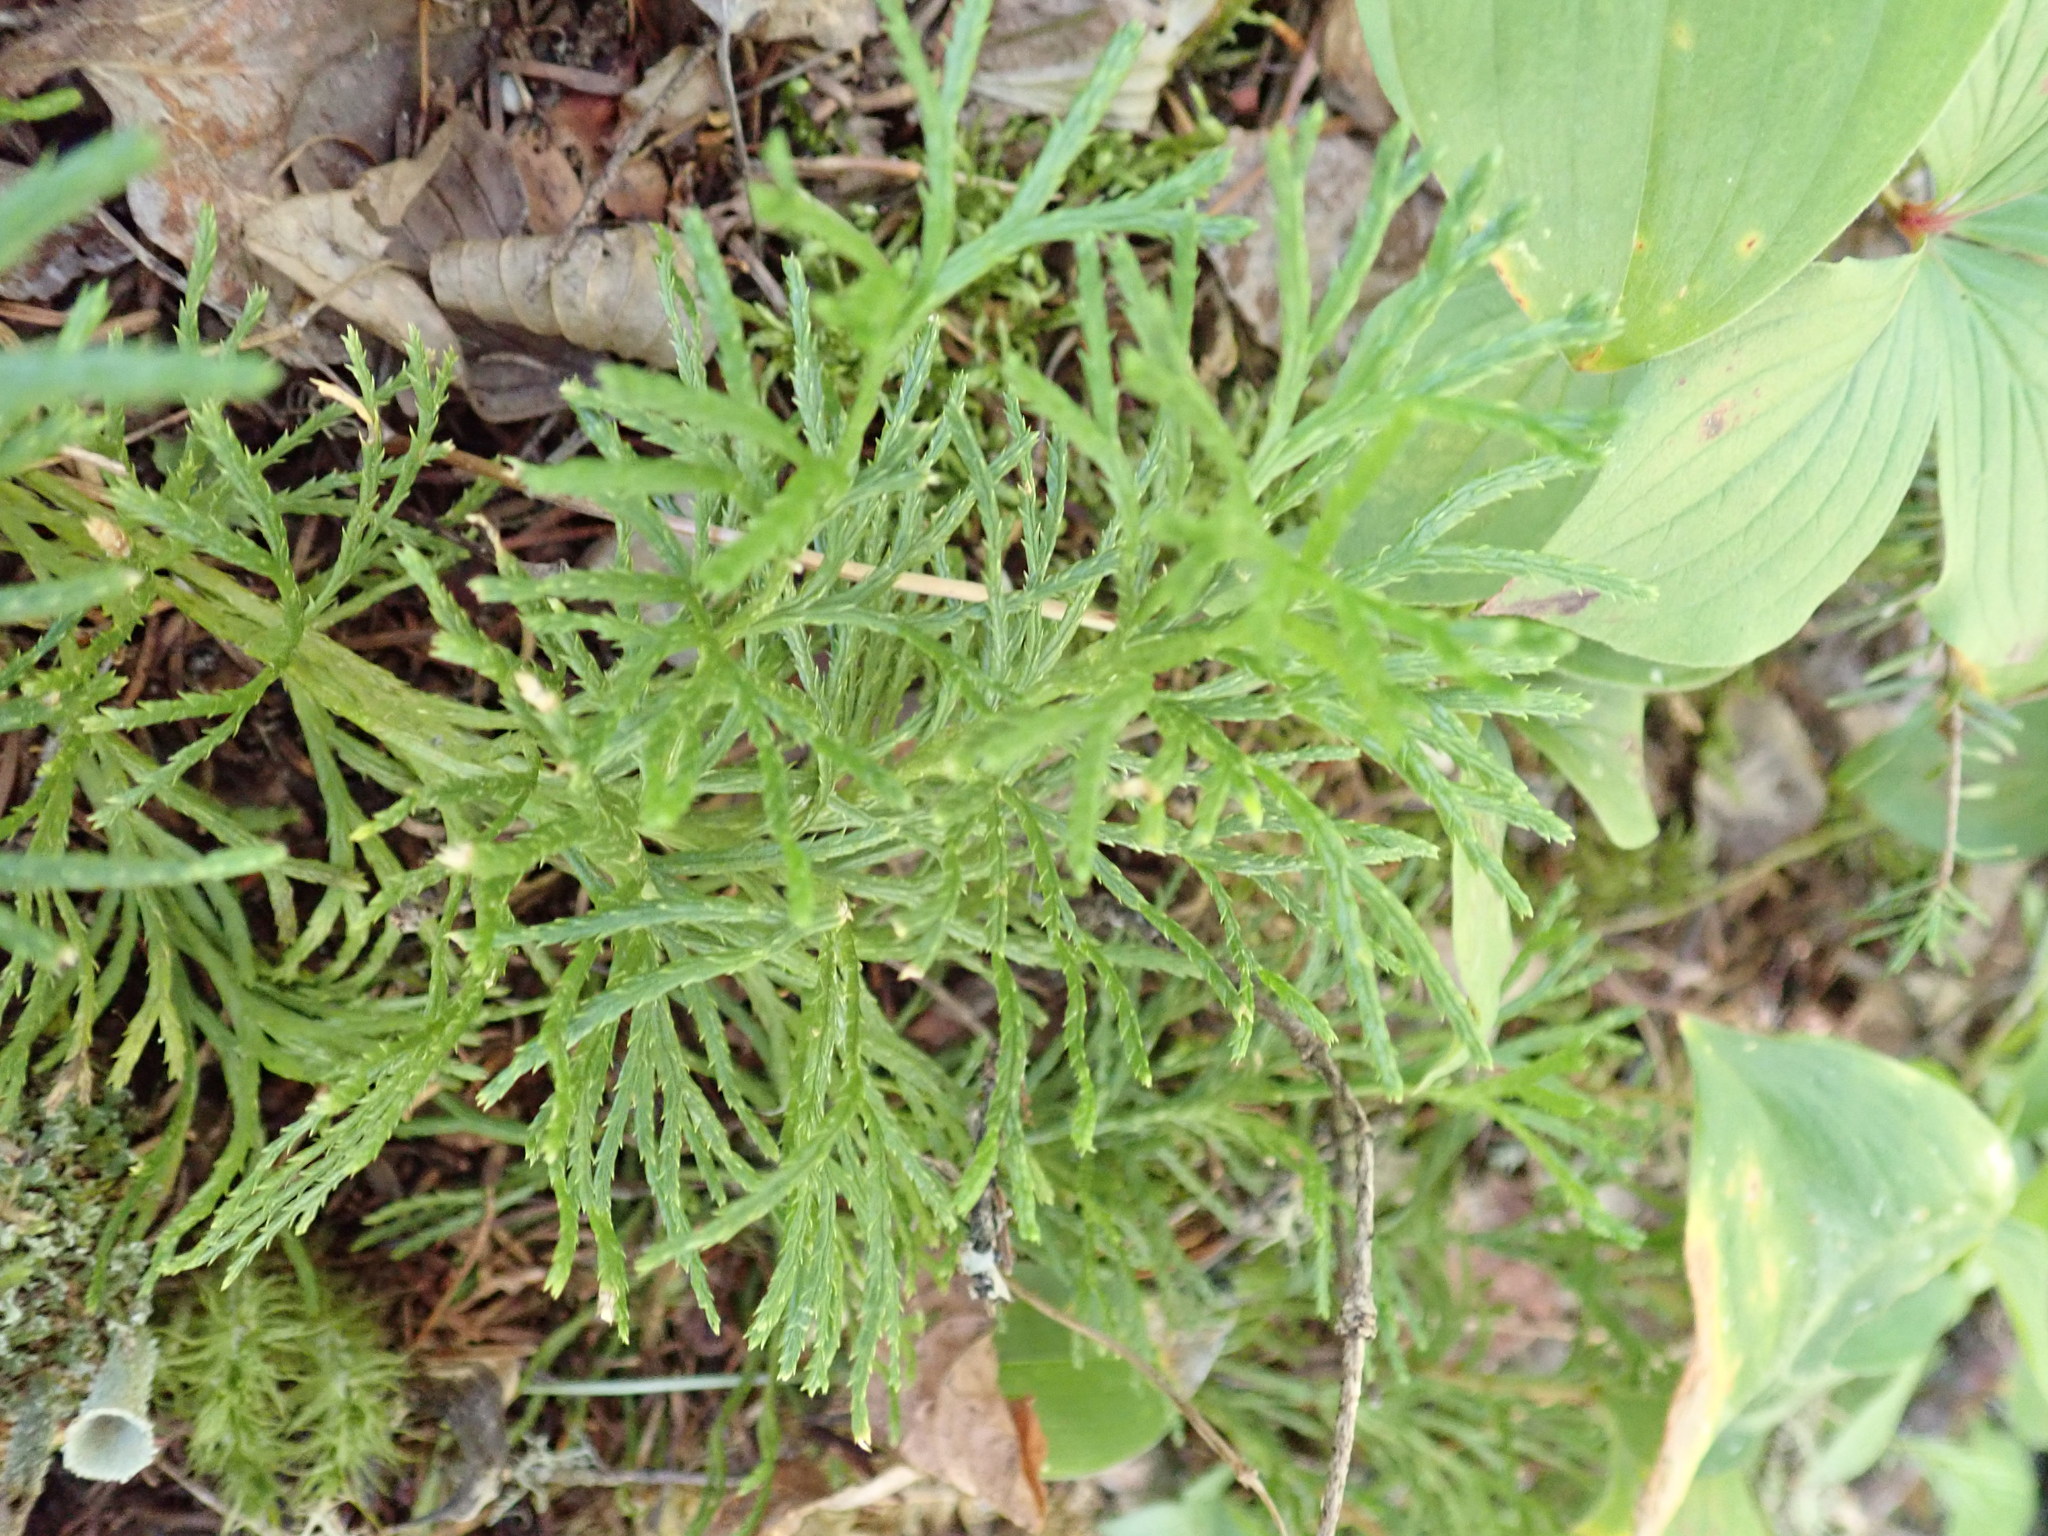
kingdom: Plantae
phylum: Tracheophyta
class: Lycopodiopsida
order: Lycopodiales
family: Lycopodiaceae
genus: Diphasiastrum
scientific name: Diphasiastrum complanatum
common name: Northern running-pine
